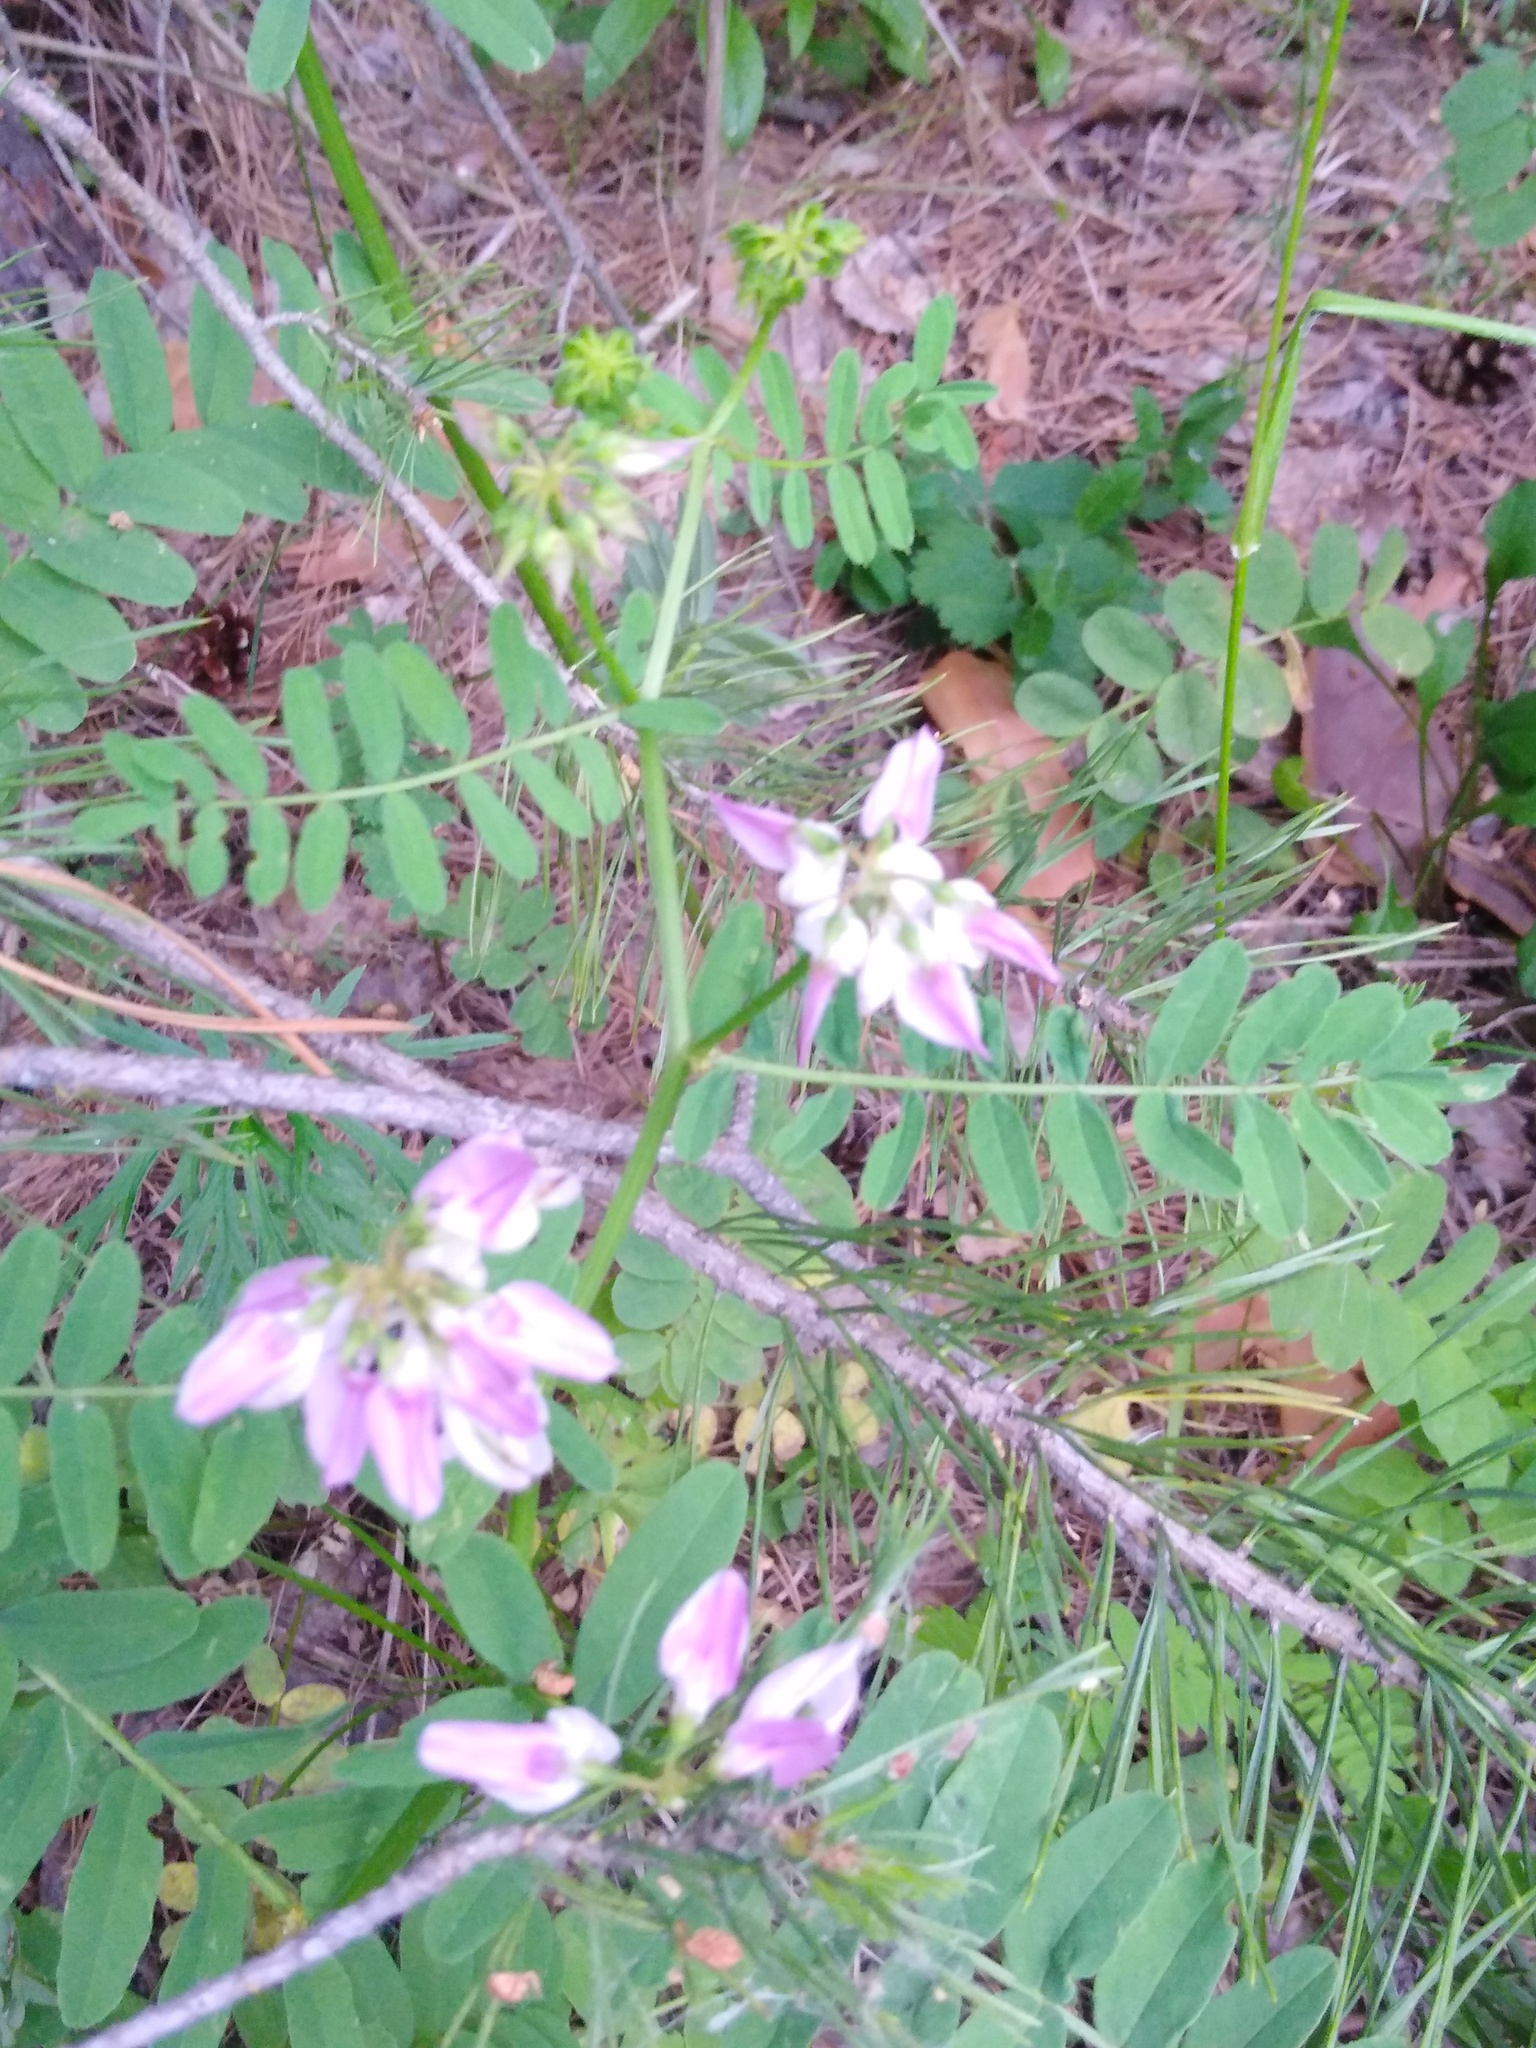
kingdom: Plantae
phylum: Tracheophyta
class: Magnoliopsida
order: Fabales
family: Fabaceae
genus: Coronilla
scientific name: Coronilla varia
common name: Crownvetch
